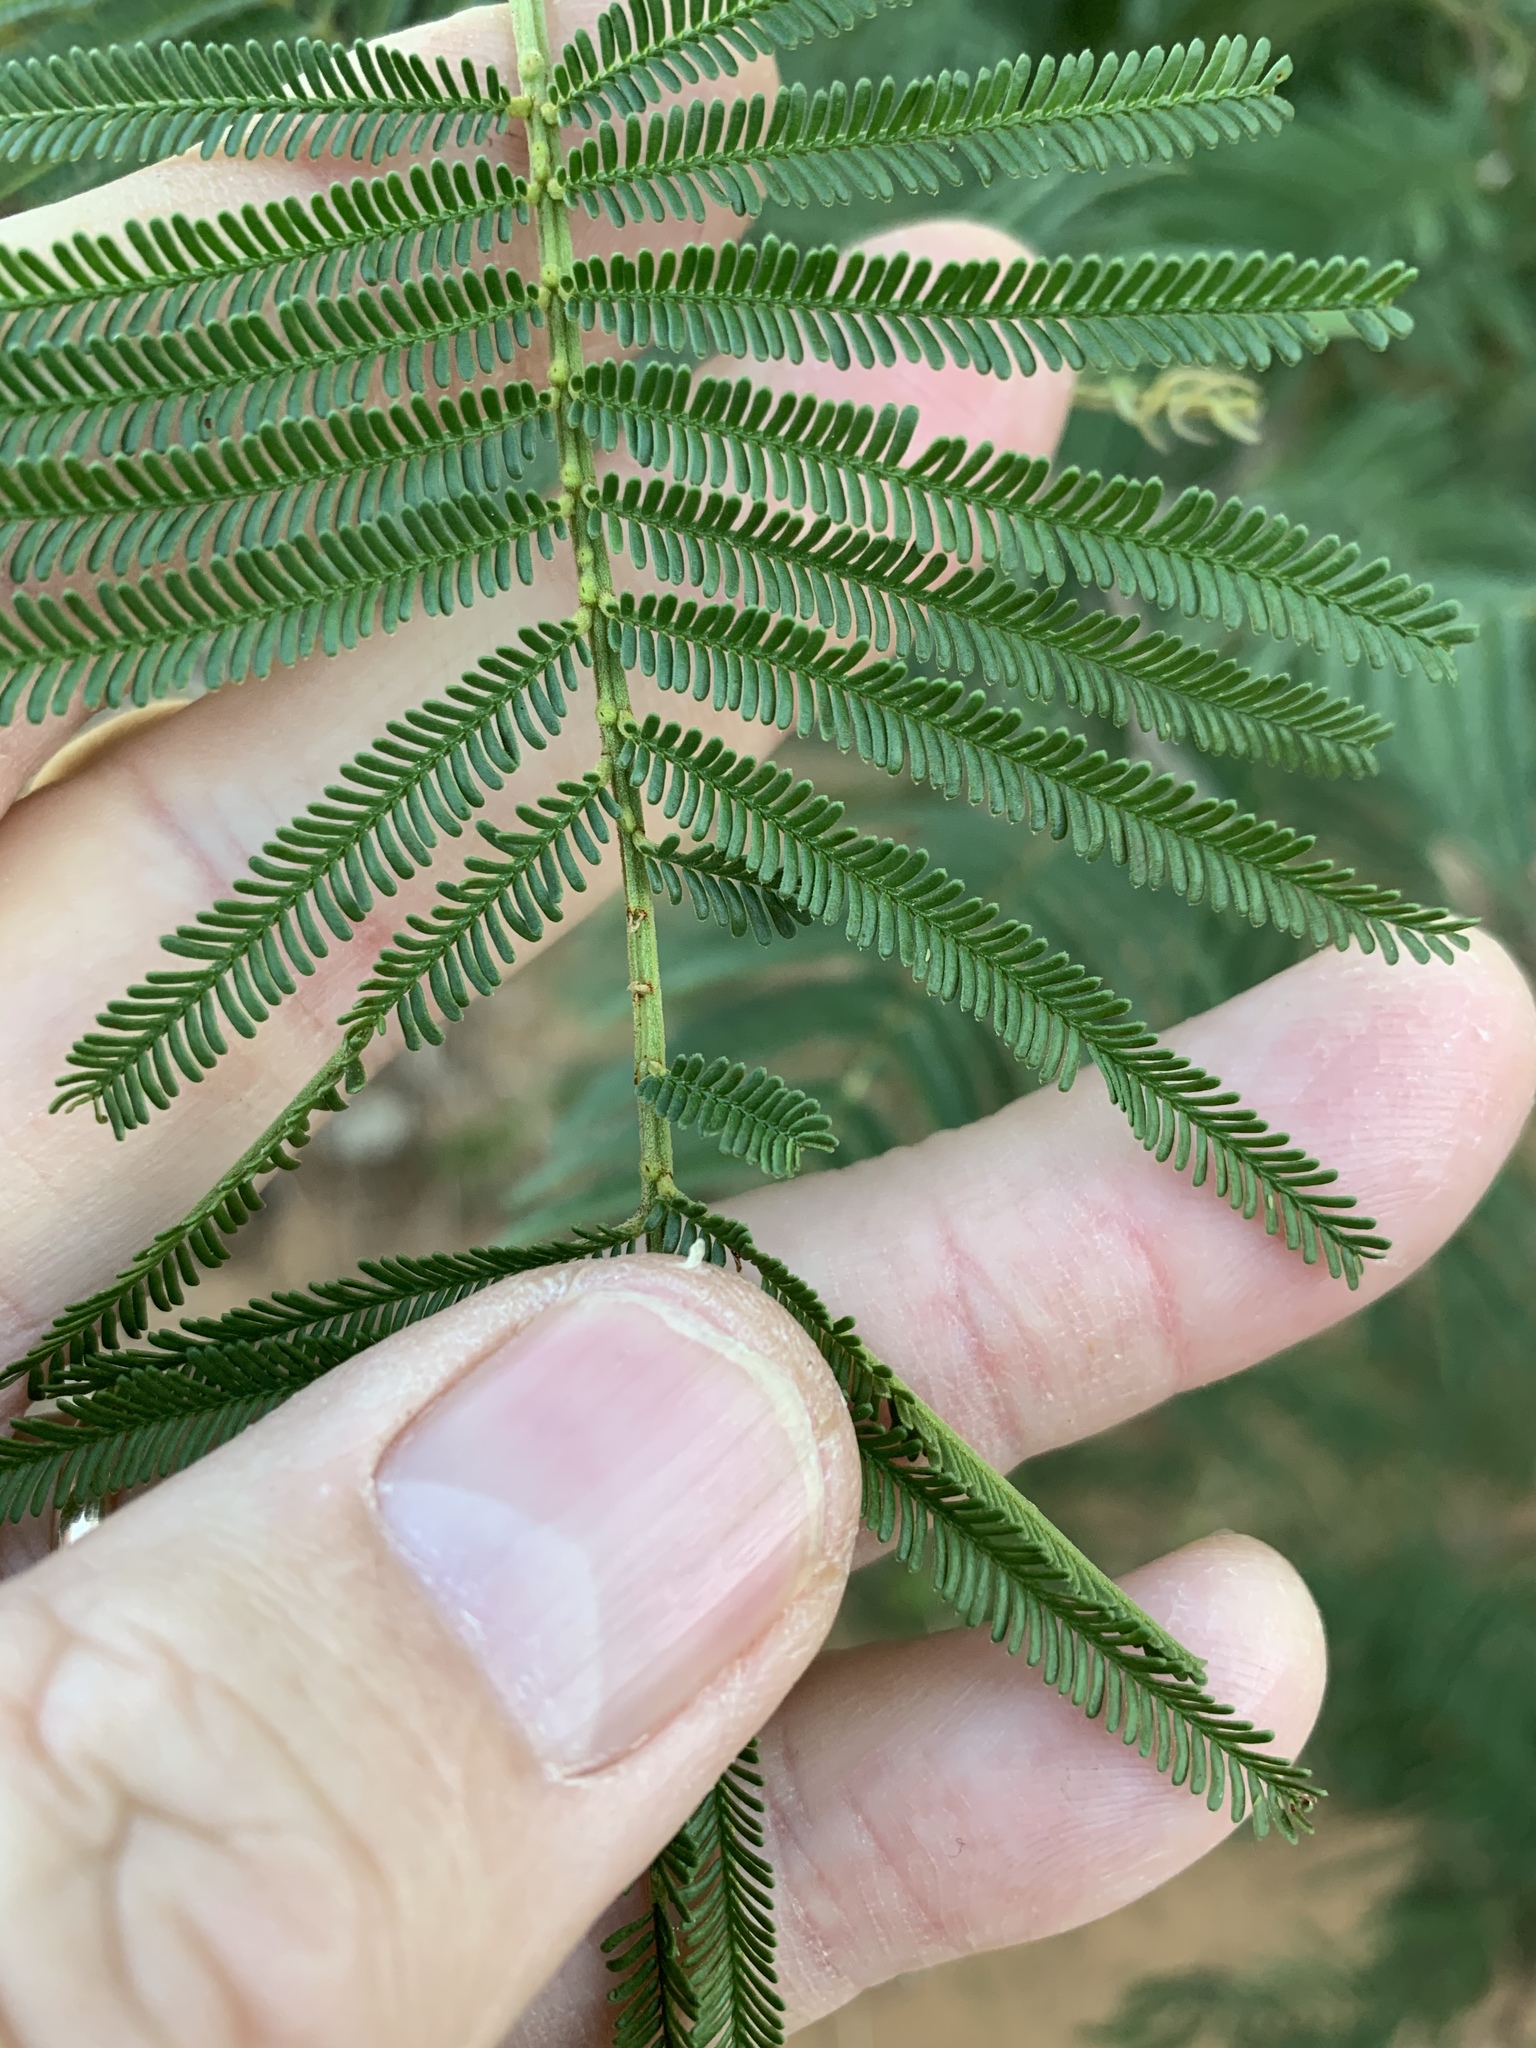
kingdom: Plantae
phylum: Tracheophyta
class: Magnoliopsida
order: Fabales
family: Fabaceae
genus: Acacia
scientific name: Acacia mearnsii
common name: Black wattle
